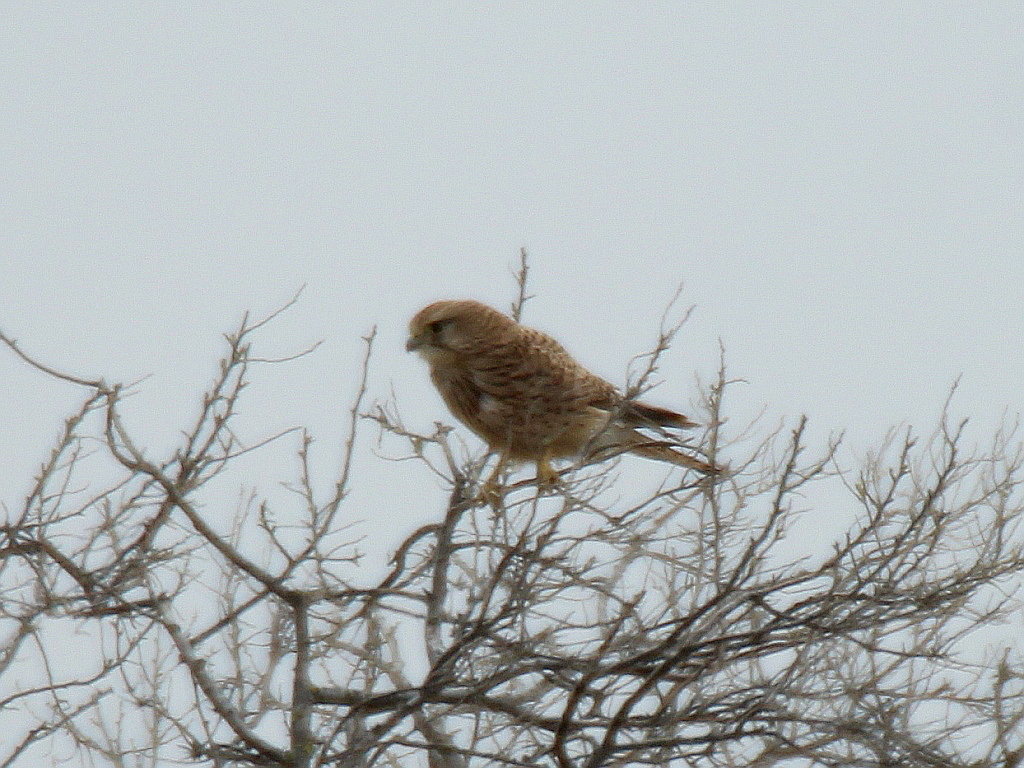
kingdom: Animalia
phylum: Chordata
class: Aves
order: Falconiformes
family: Falconidae
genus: Falco
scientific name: Falco tinnunculus
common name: Common kestrel
